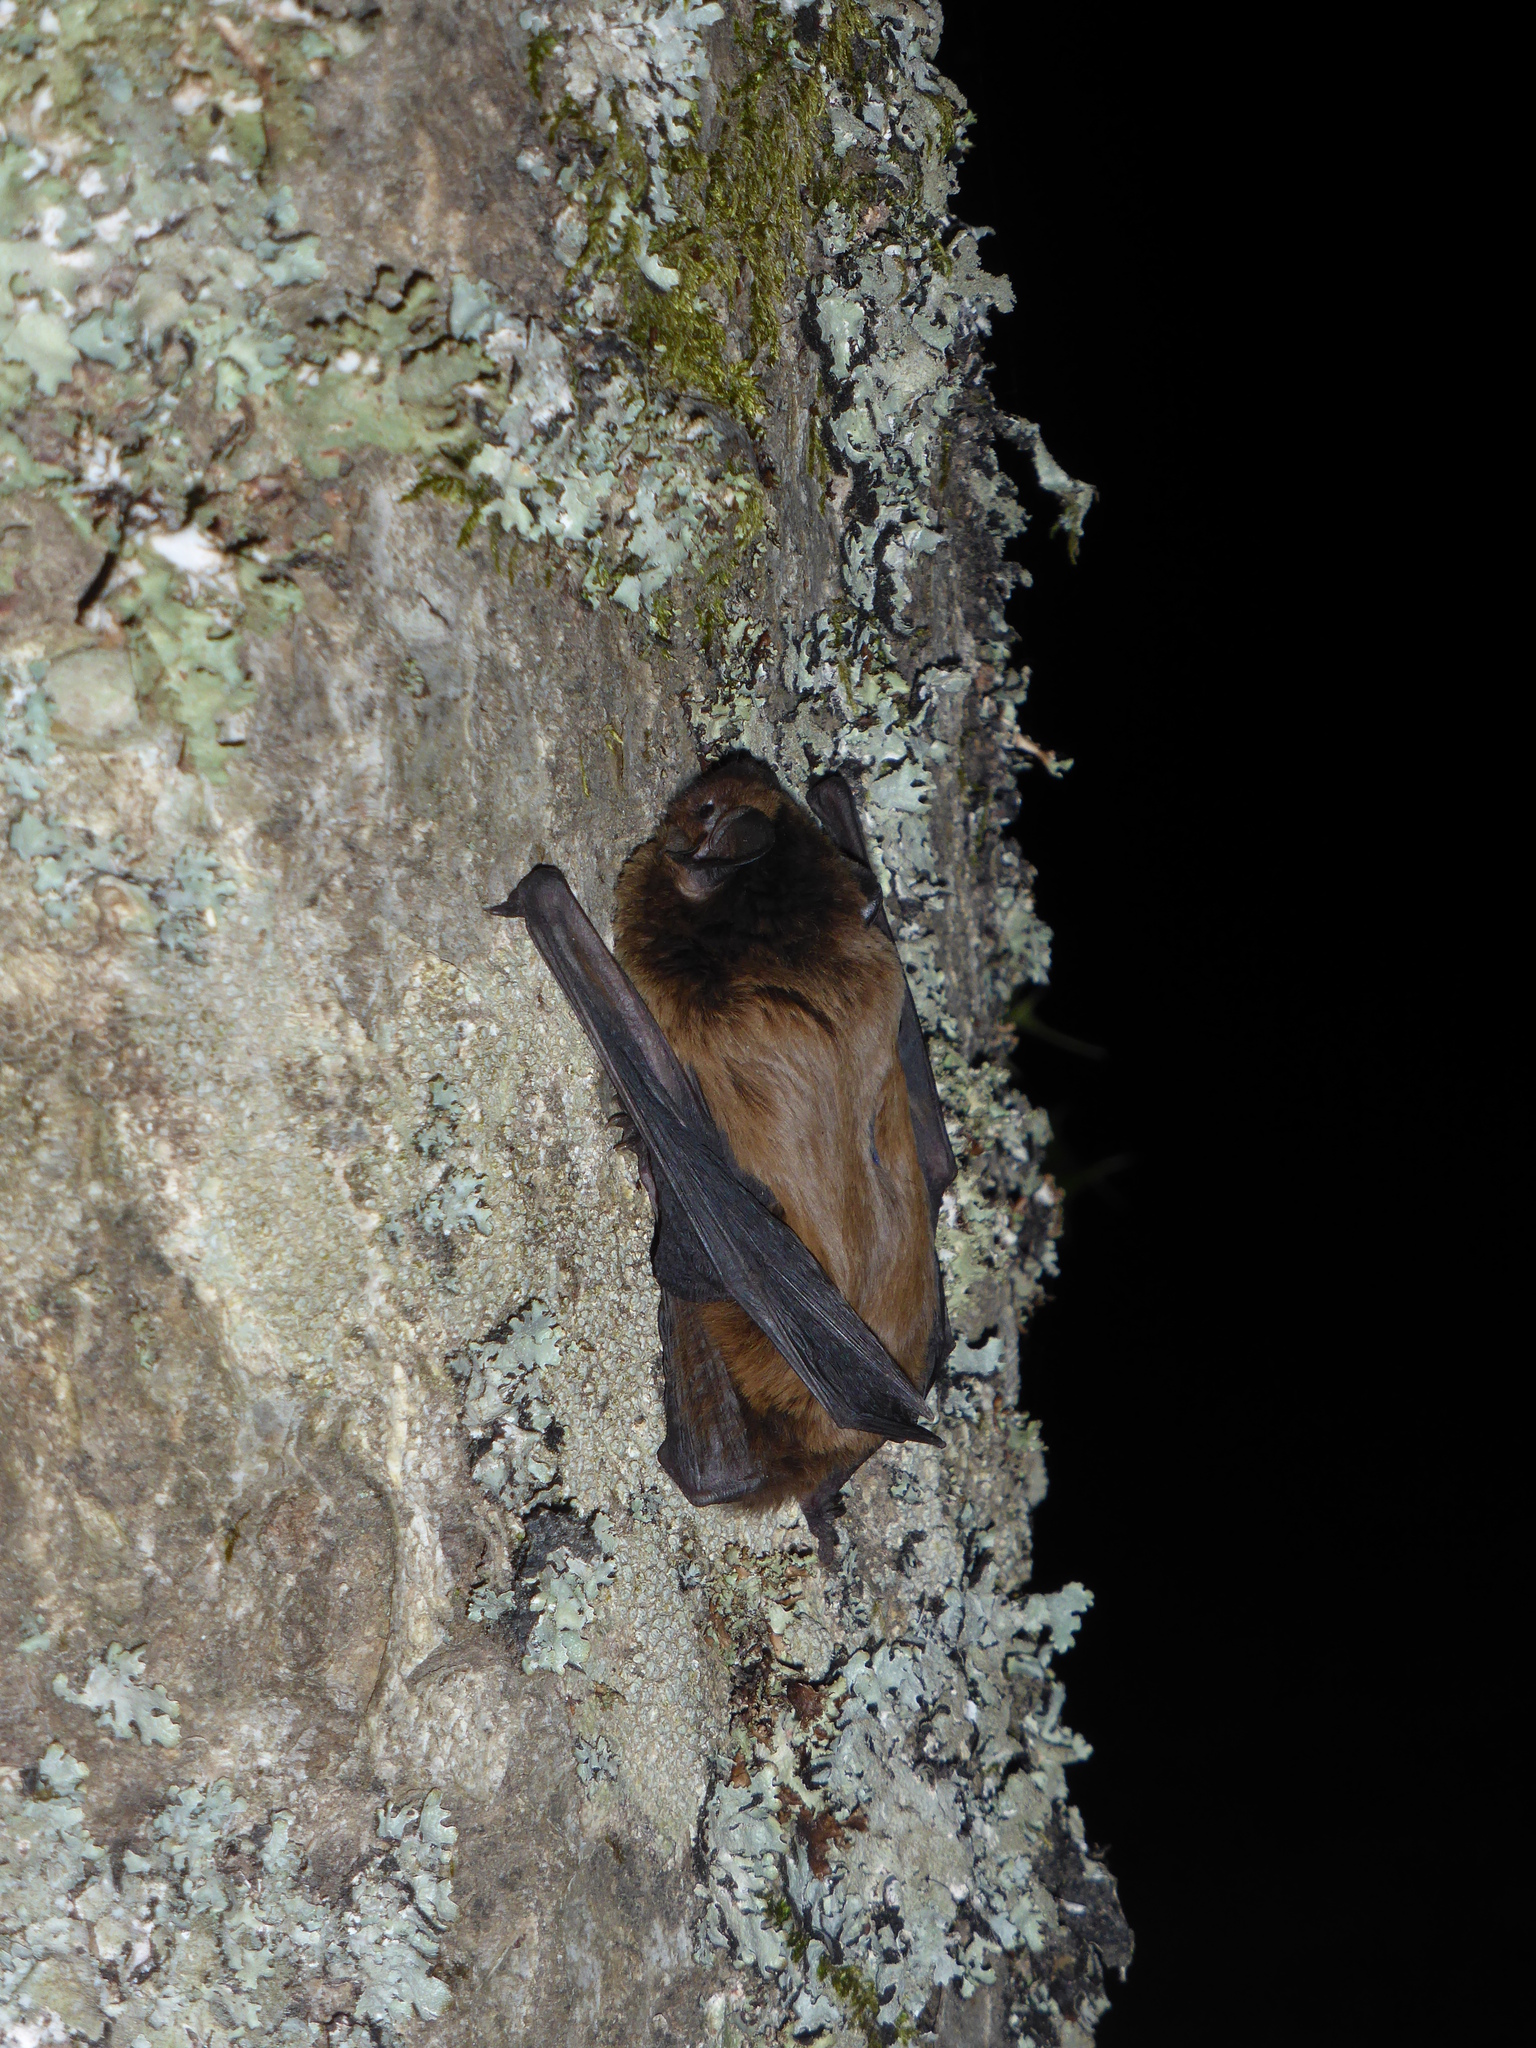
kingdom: Animalia
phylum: Chordata
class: Mammalia
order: Chiroptera
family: Vespertilionidae
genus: Nyctalus
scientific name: Nyctalus leisleri
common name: Lesser noctule
